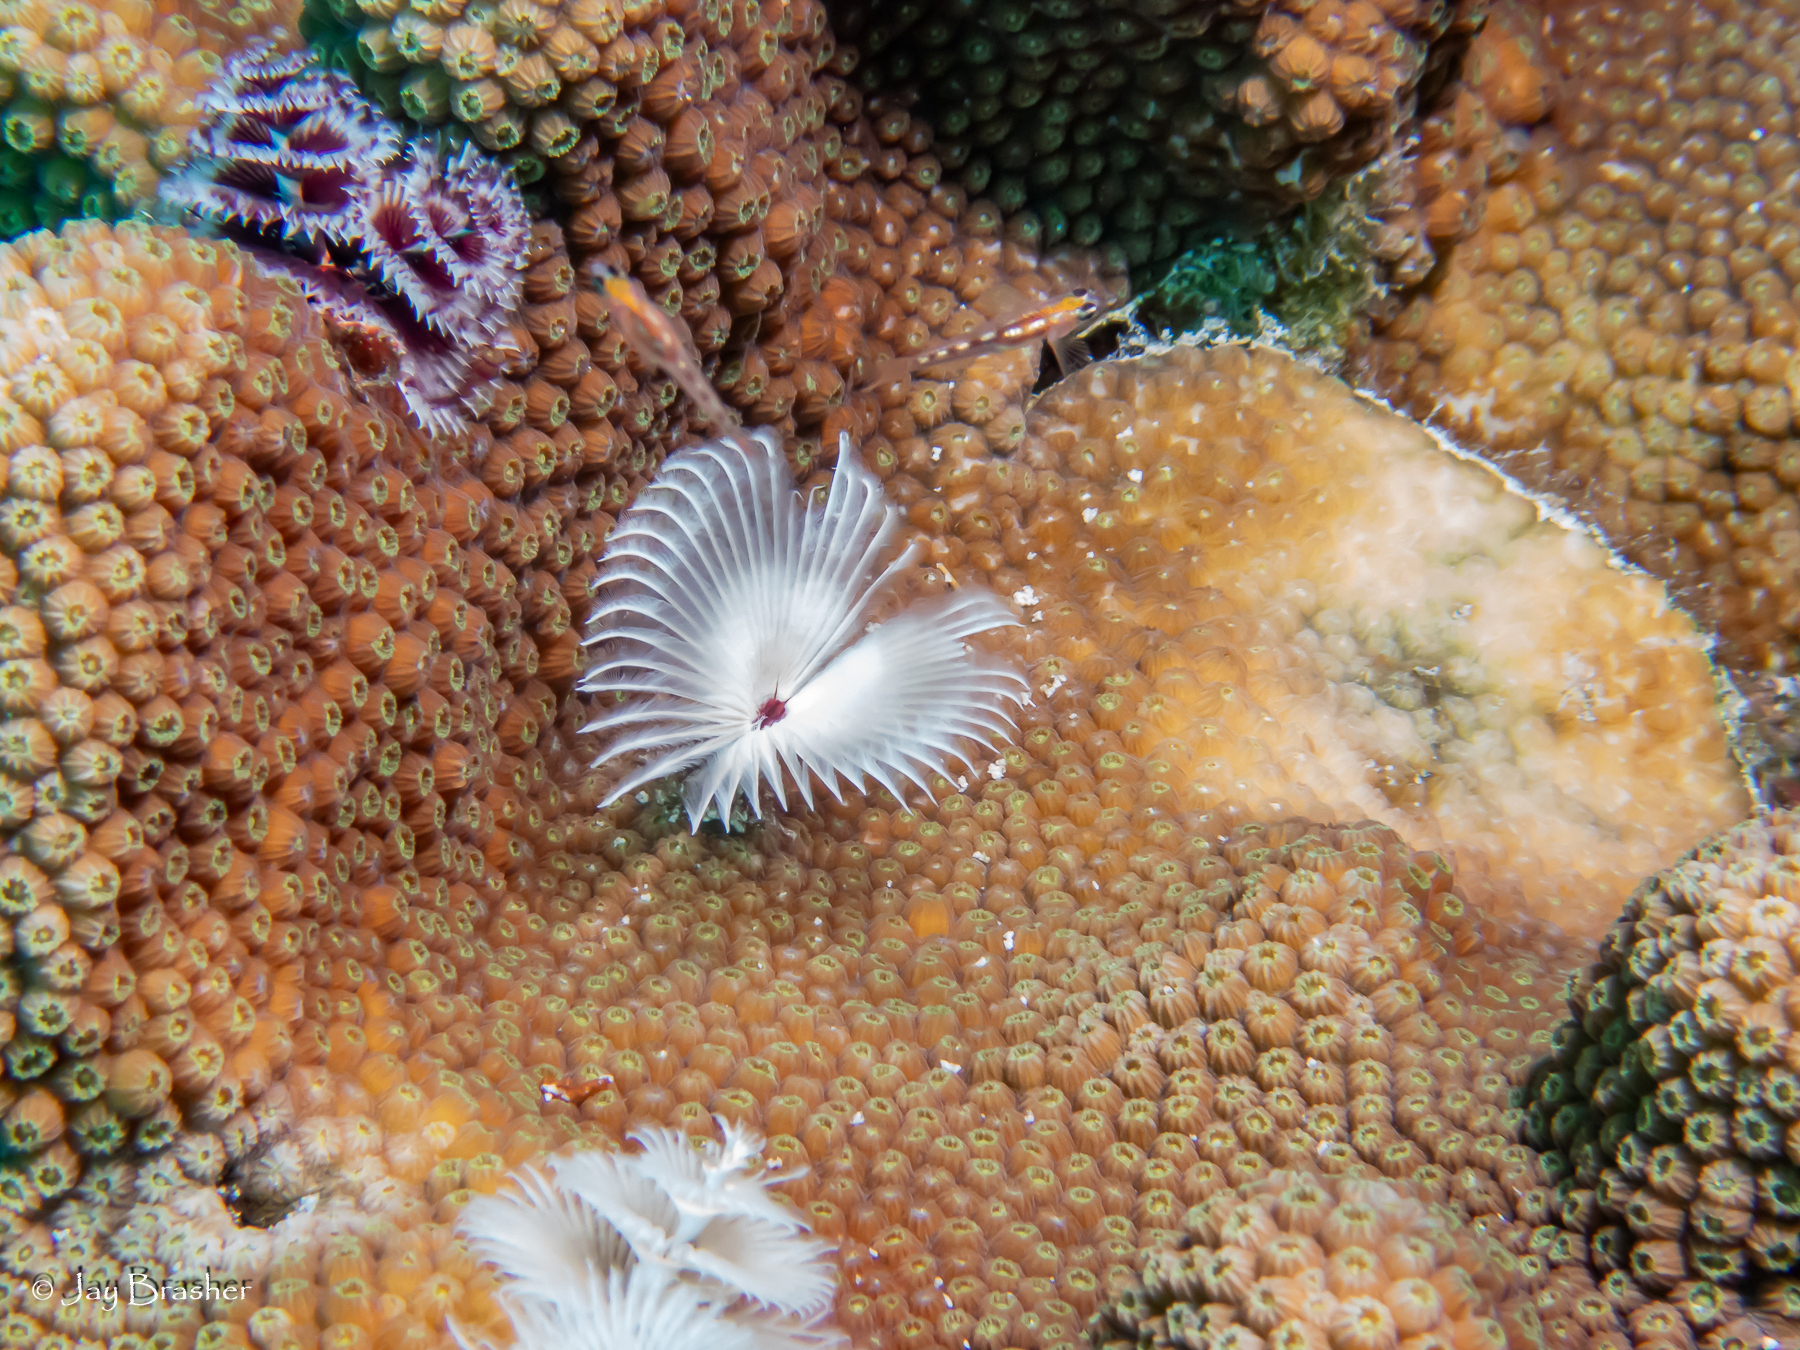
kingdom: Animalia
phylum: Annelida
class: Polychaeta
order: Sabellida
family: Serpulidae
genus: Spirobranchus
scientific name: Spirobranchus giganteus
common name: Christmas tree worm
